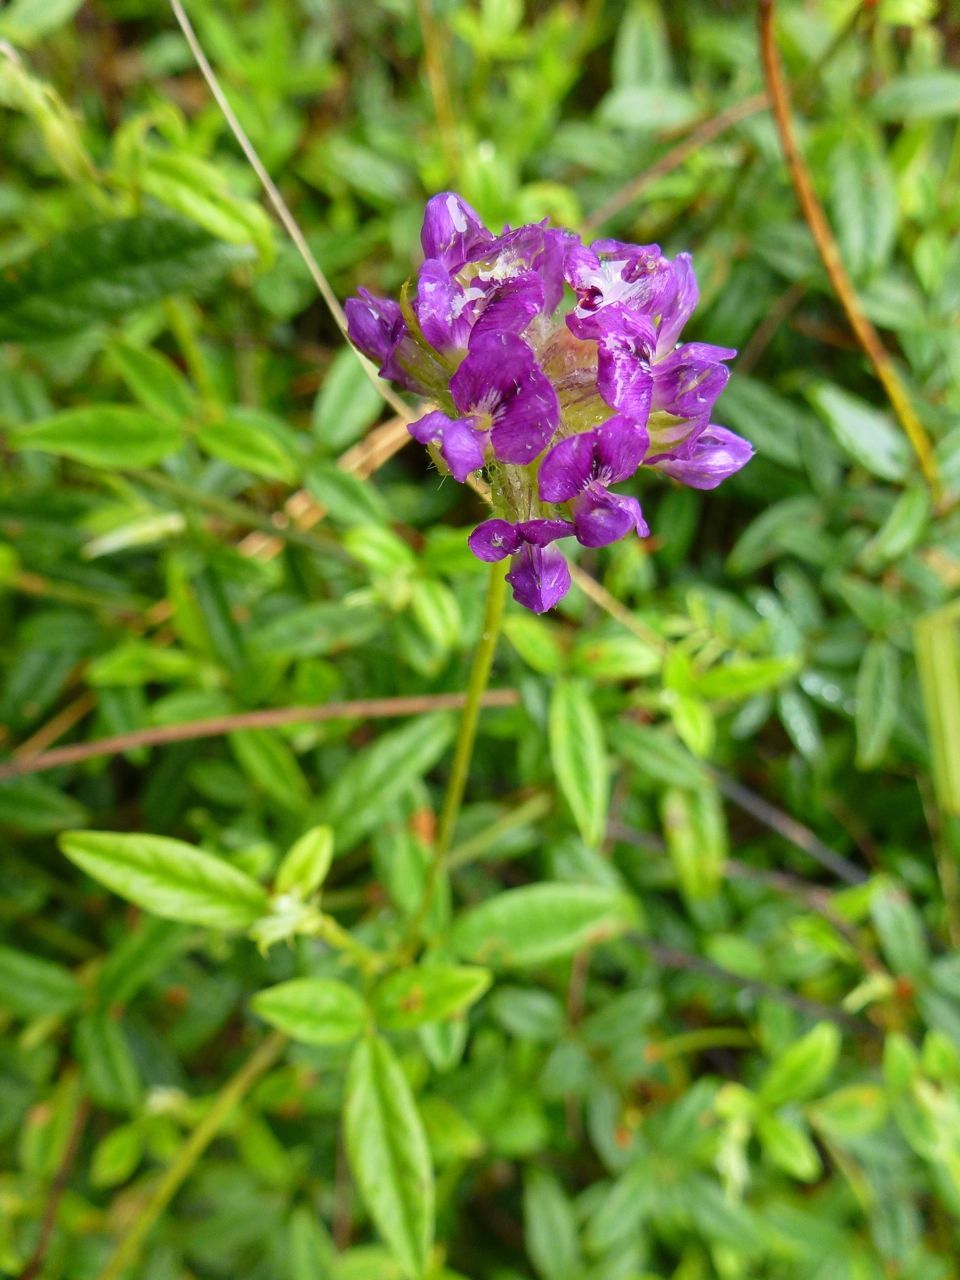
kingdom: Plantae
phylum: Tracheophyta
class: Magnoliopsida
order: Fabales
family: Fabaceae
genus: Psoralea
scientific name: Psoralea swartbergensis
